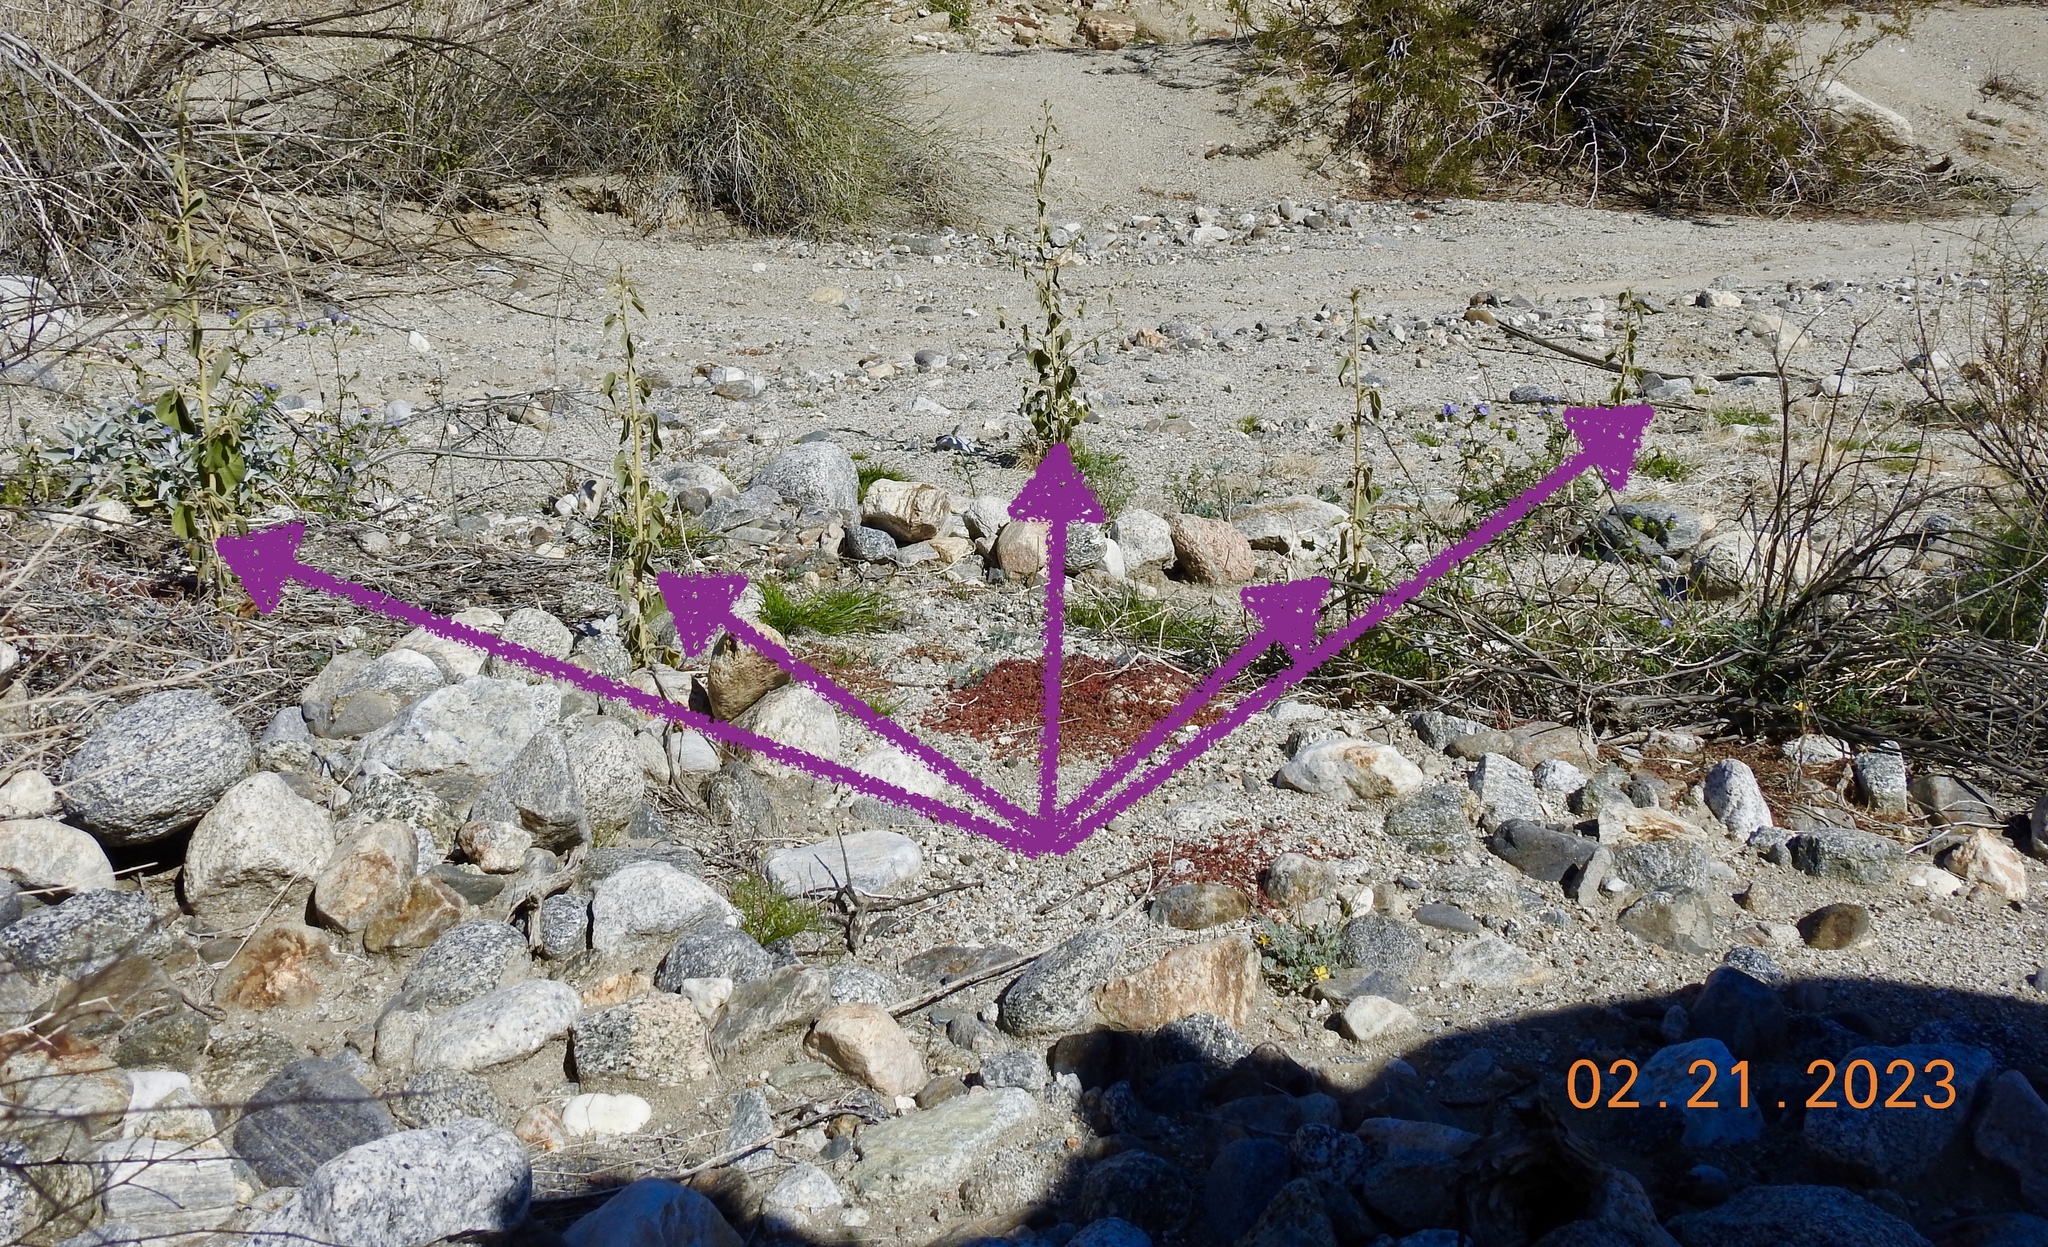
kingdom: Plantae
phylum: Tracheophyta
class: Magnoliopsida
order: Malvales
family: Malvaceae
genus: Horsfordia
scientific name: Horsfordia newberryi
